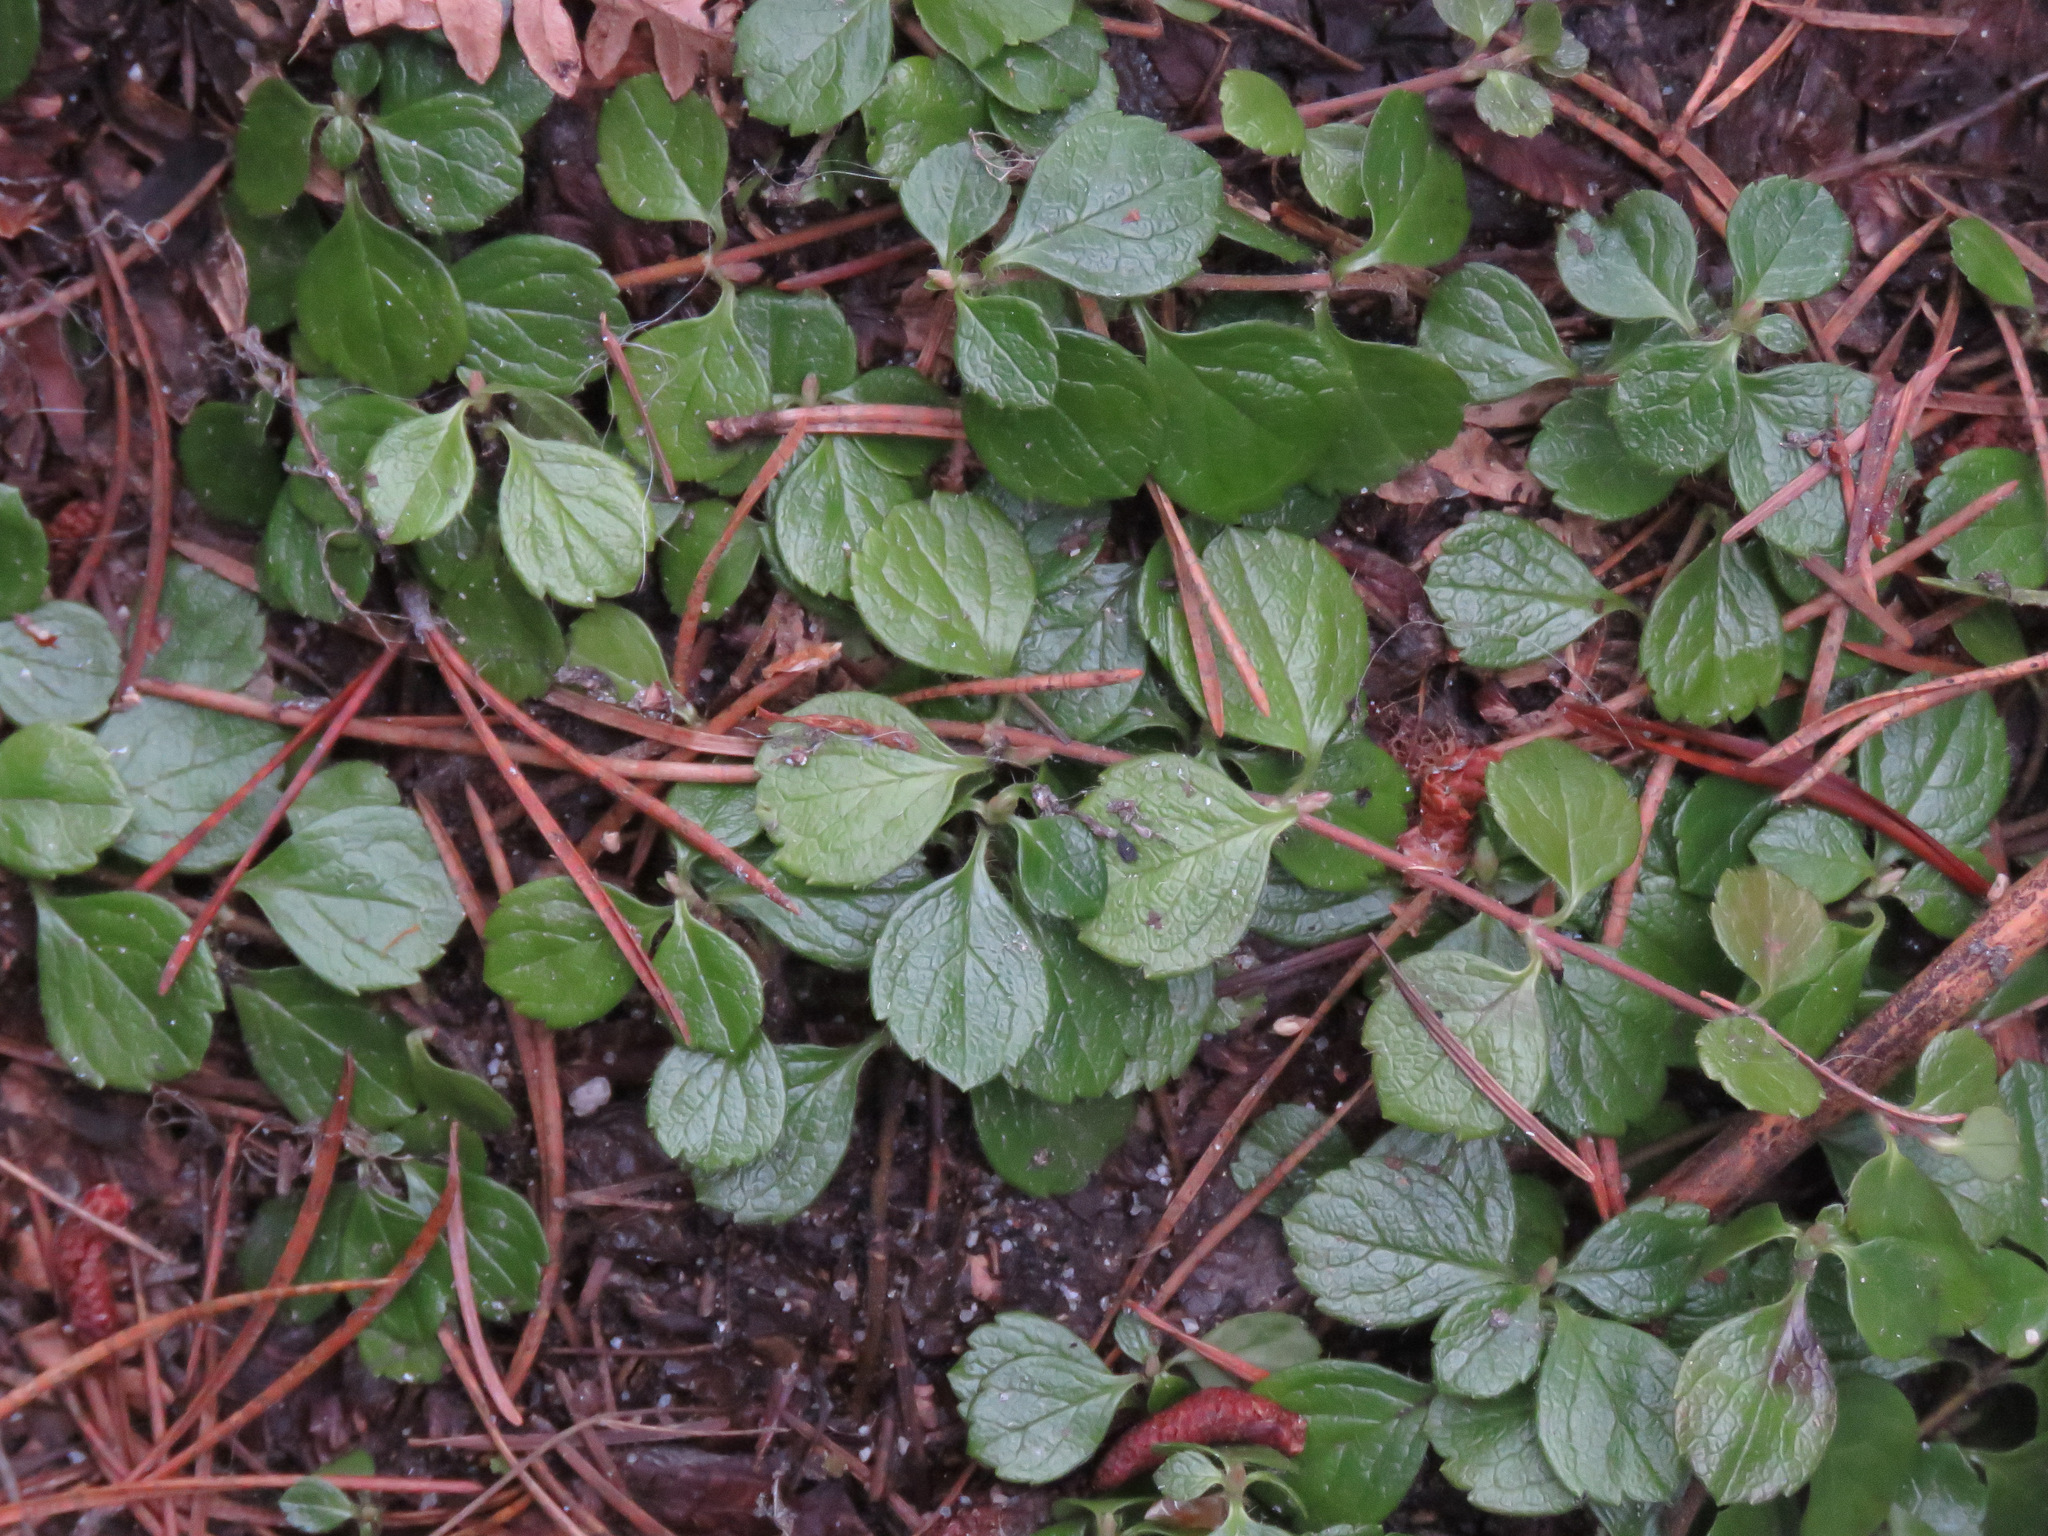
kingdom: Plantae
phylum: Tracheophyta
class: Magnoliopsida
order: Dipsacales
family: Caprifoliaceae
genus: Linnaea
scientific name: Linnaea borealis
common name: Twinflower
